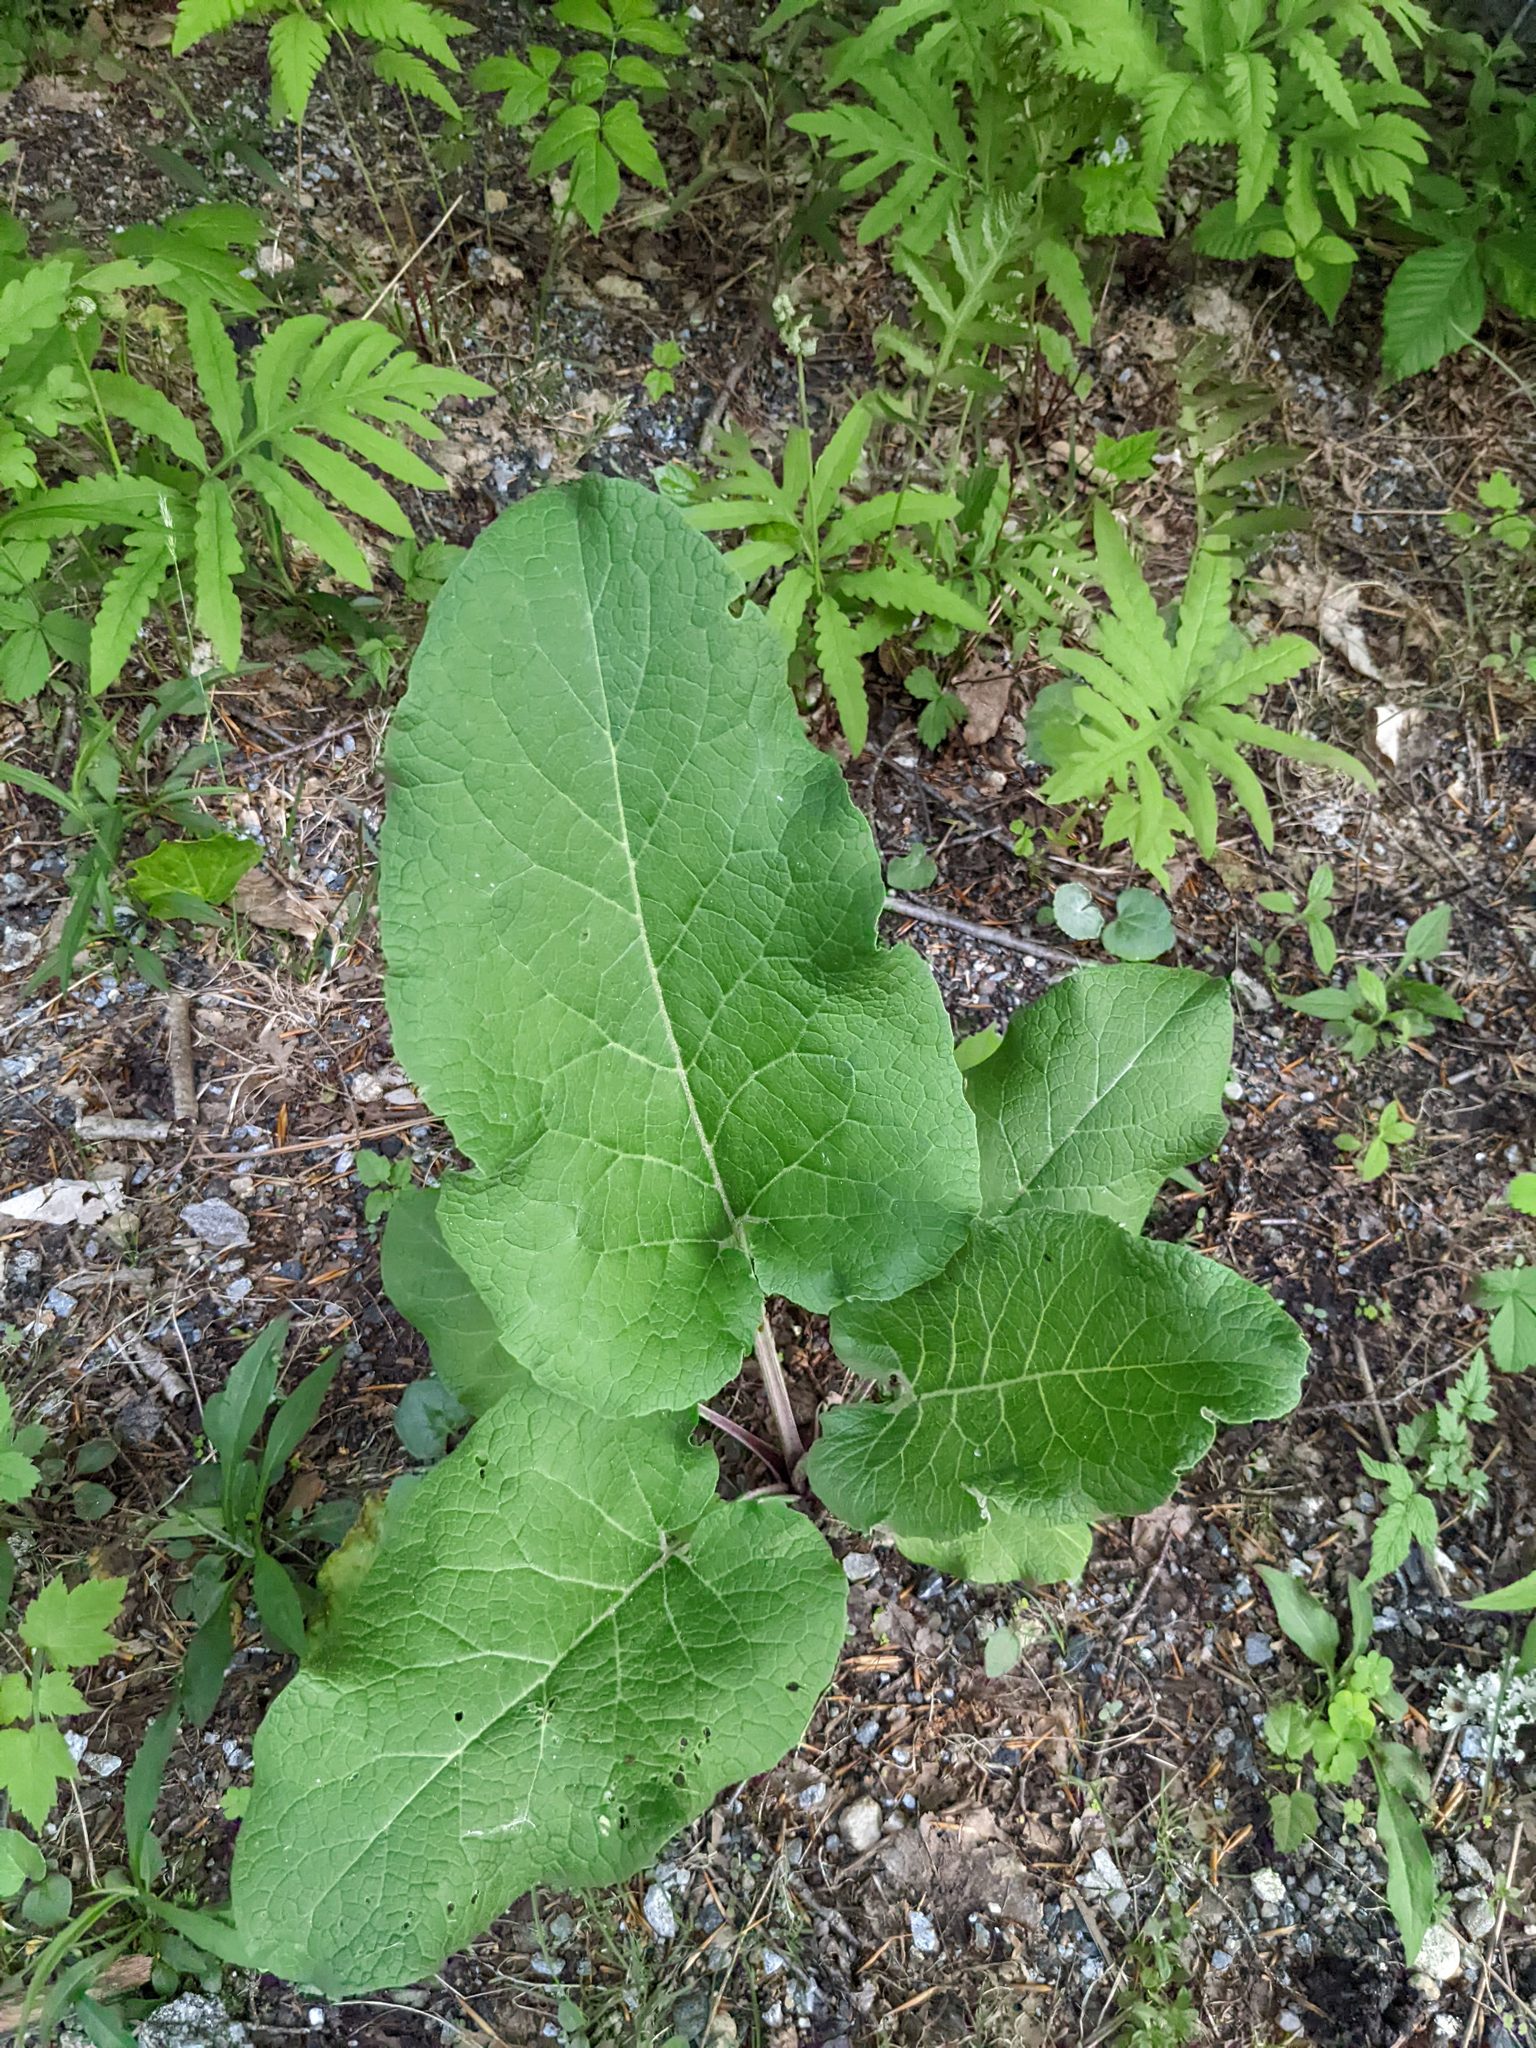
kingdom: Plantae
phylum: Tracheophyta
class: Magnoliopsida
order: Asterales
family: Asteraceae
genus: Arctium
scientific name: Arctium
